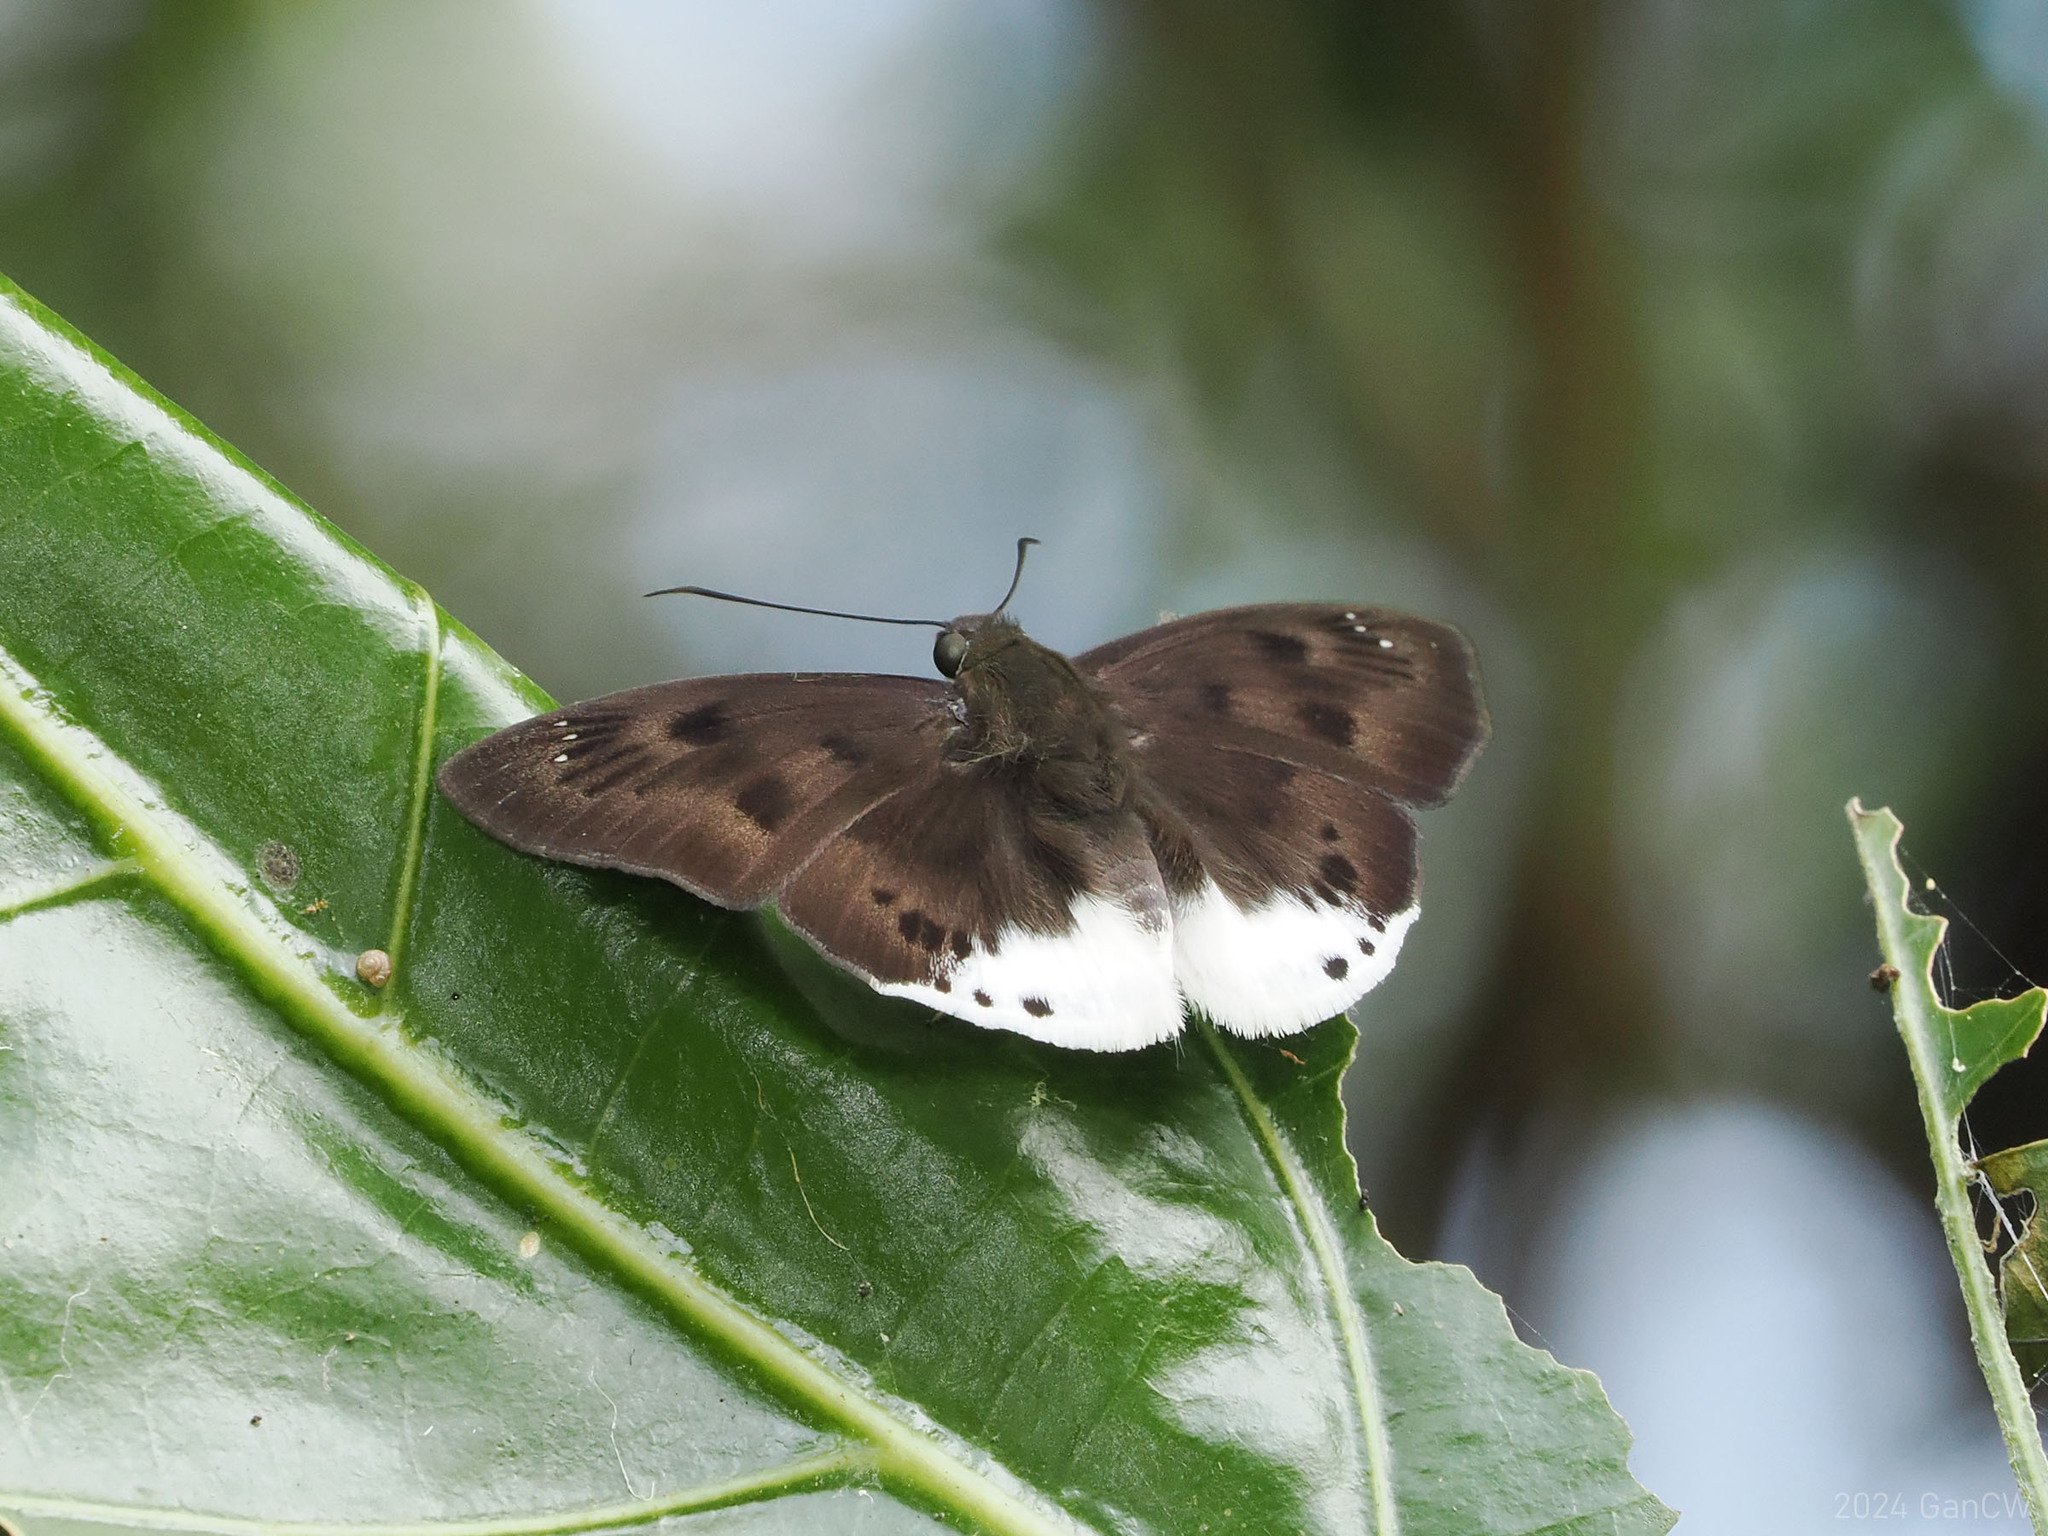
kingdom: Animalia
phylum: Arthropoda
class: Insecta
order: Lepidoptera
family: Hesperiidae
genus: Tagiades
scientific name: Tagiades gana
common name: Suffused snow flat
